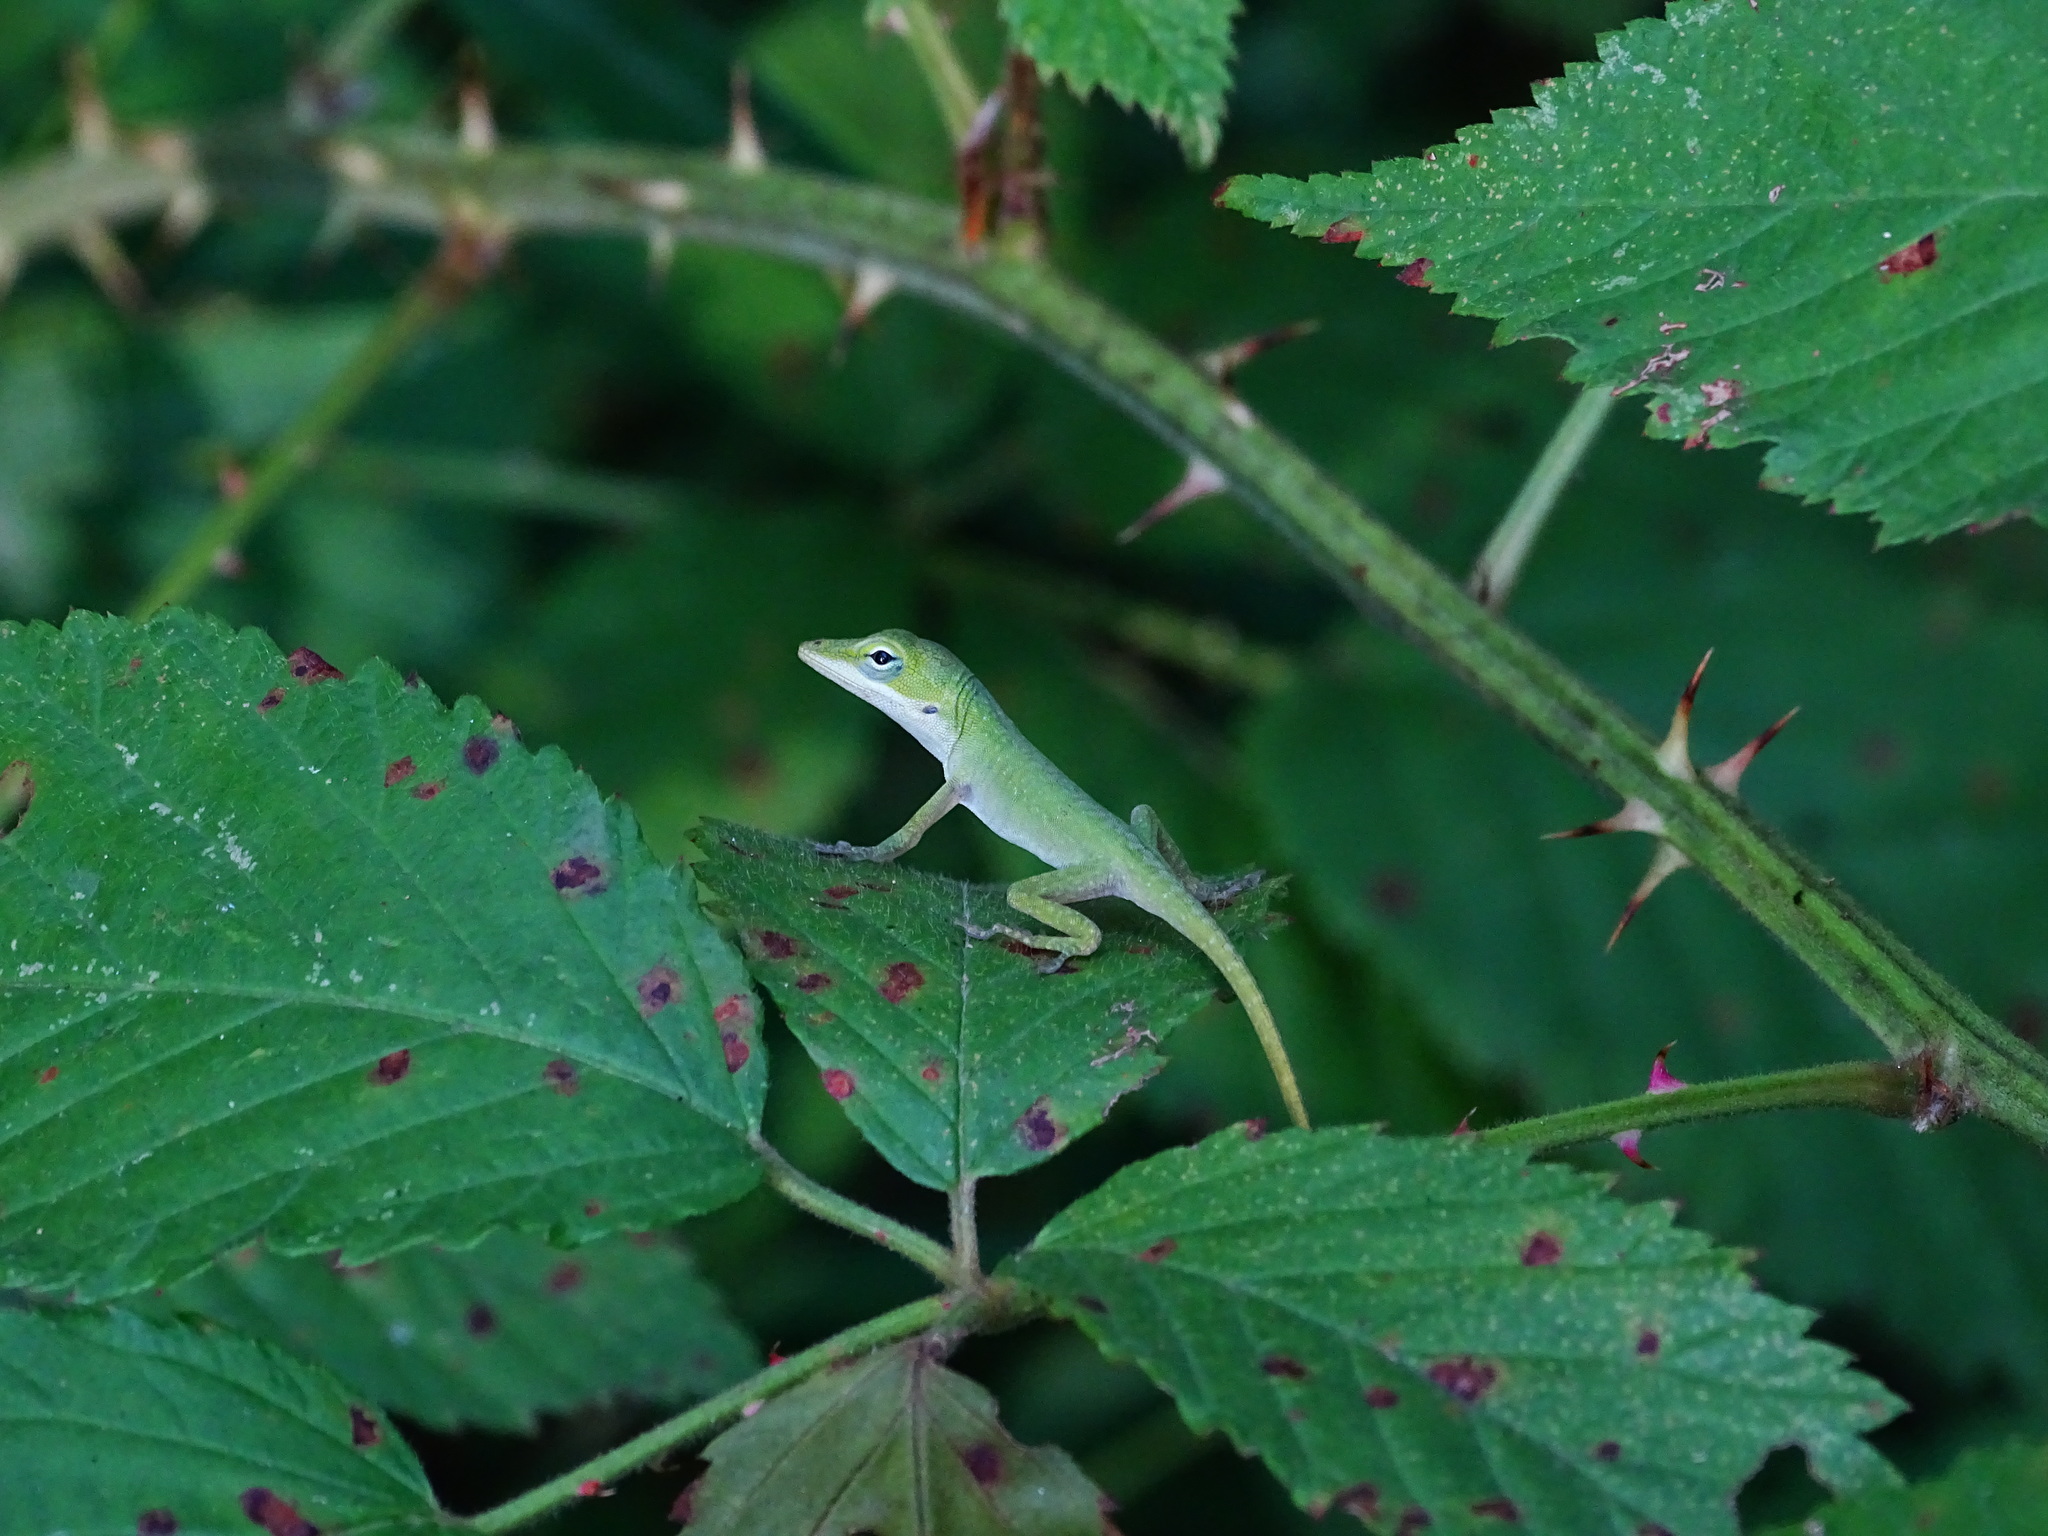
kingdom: Animalia
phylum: Chordata
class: Squamata
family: Dactyloidae
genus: Anolis
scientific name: Anolis carolinensis
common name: Green anole
